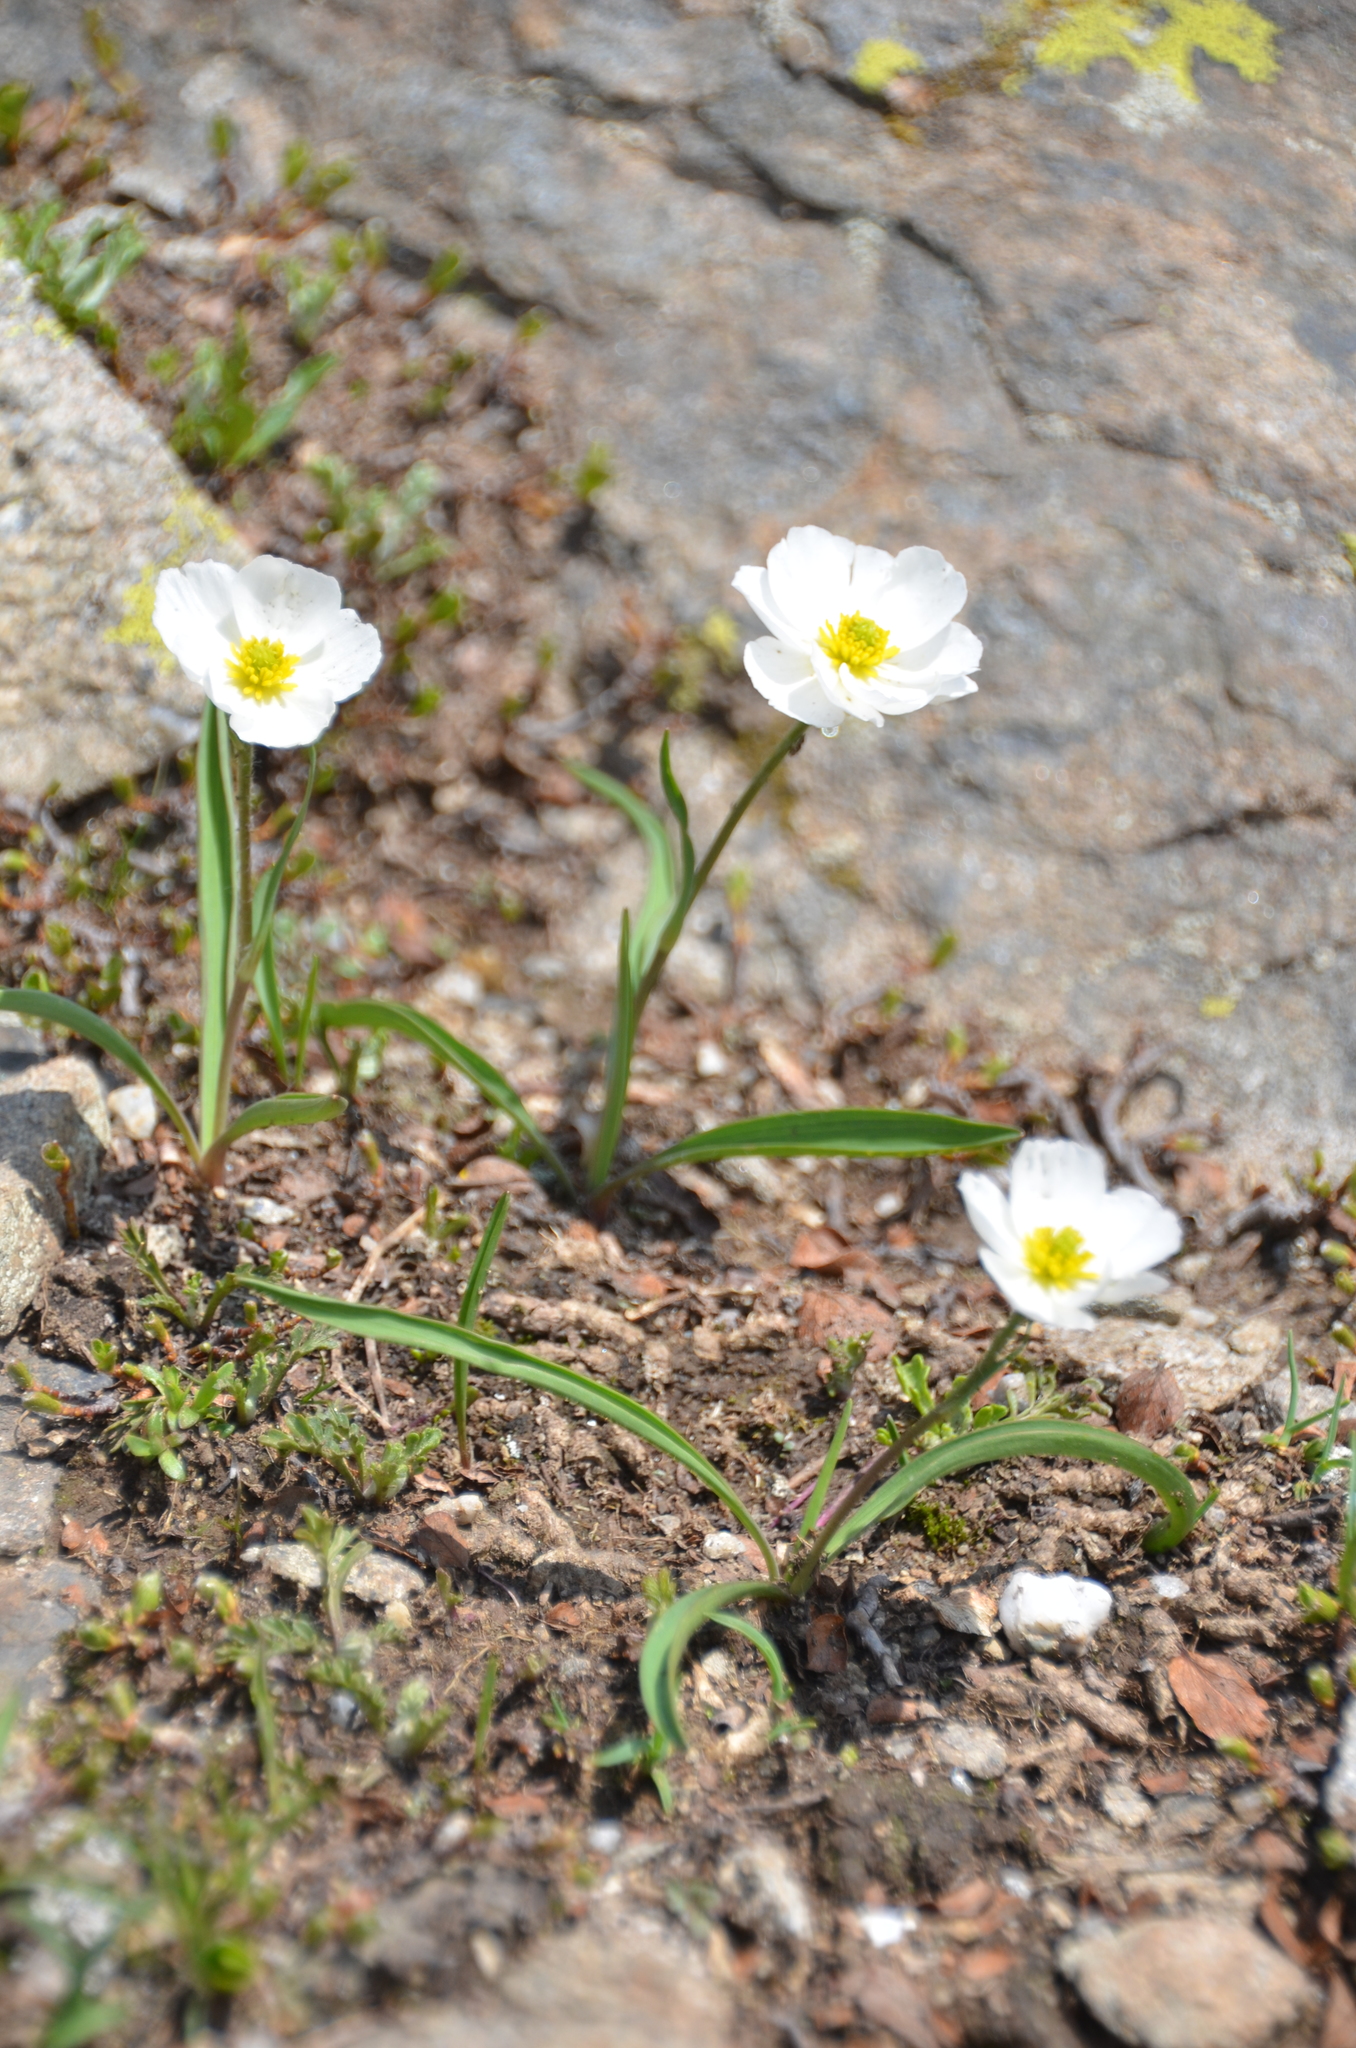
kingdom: Plantae
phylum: Tracheophyta
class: Magnoliopsida
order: Ranunculales
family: Ranunculaceae
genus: Ranunculus
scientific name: Ranunculus kuepferi
